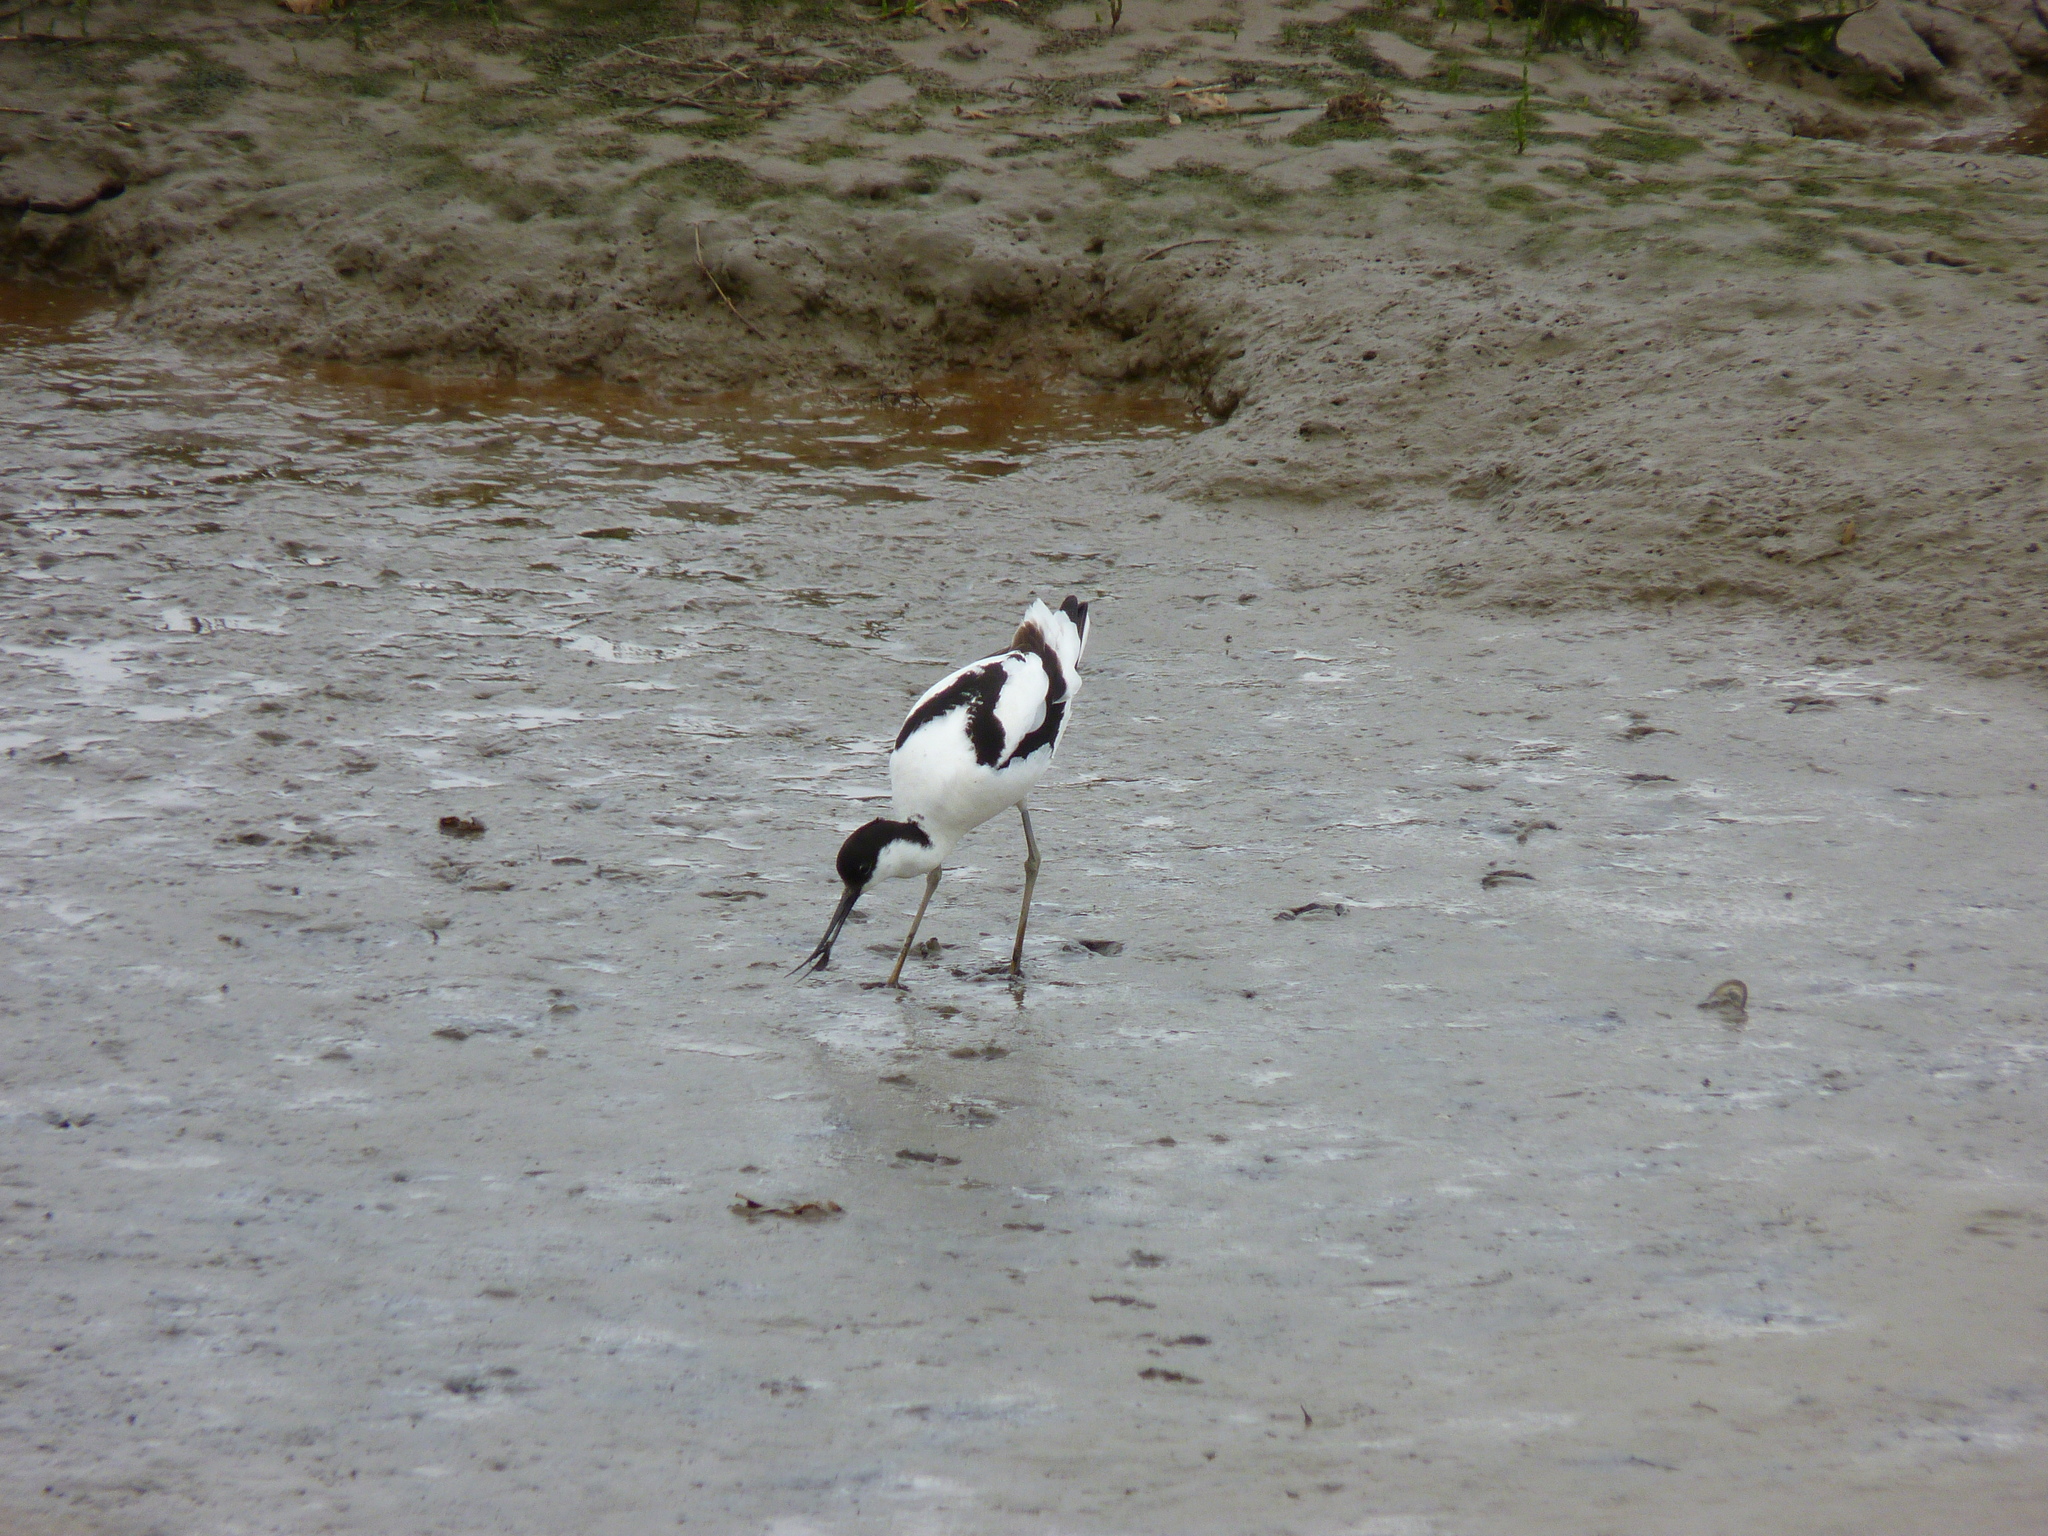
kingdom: Animalia
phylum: Chordata
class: Aves
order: Charadriiformes
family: Recurvirostridae
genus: Recurvirostra
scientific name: Recurvirostra avosetta
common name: Pied avocet
